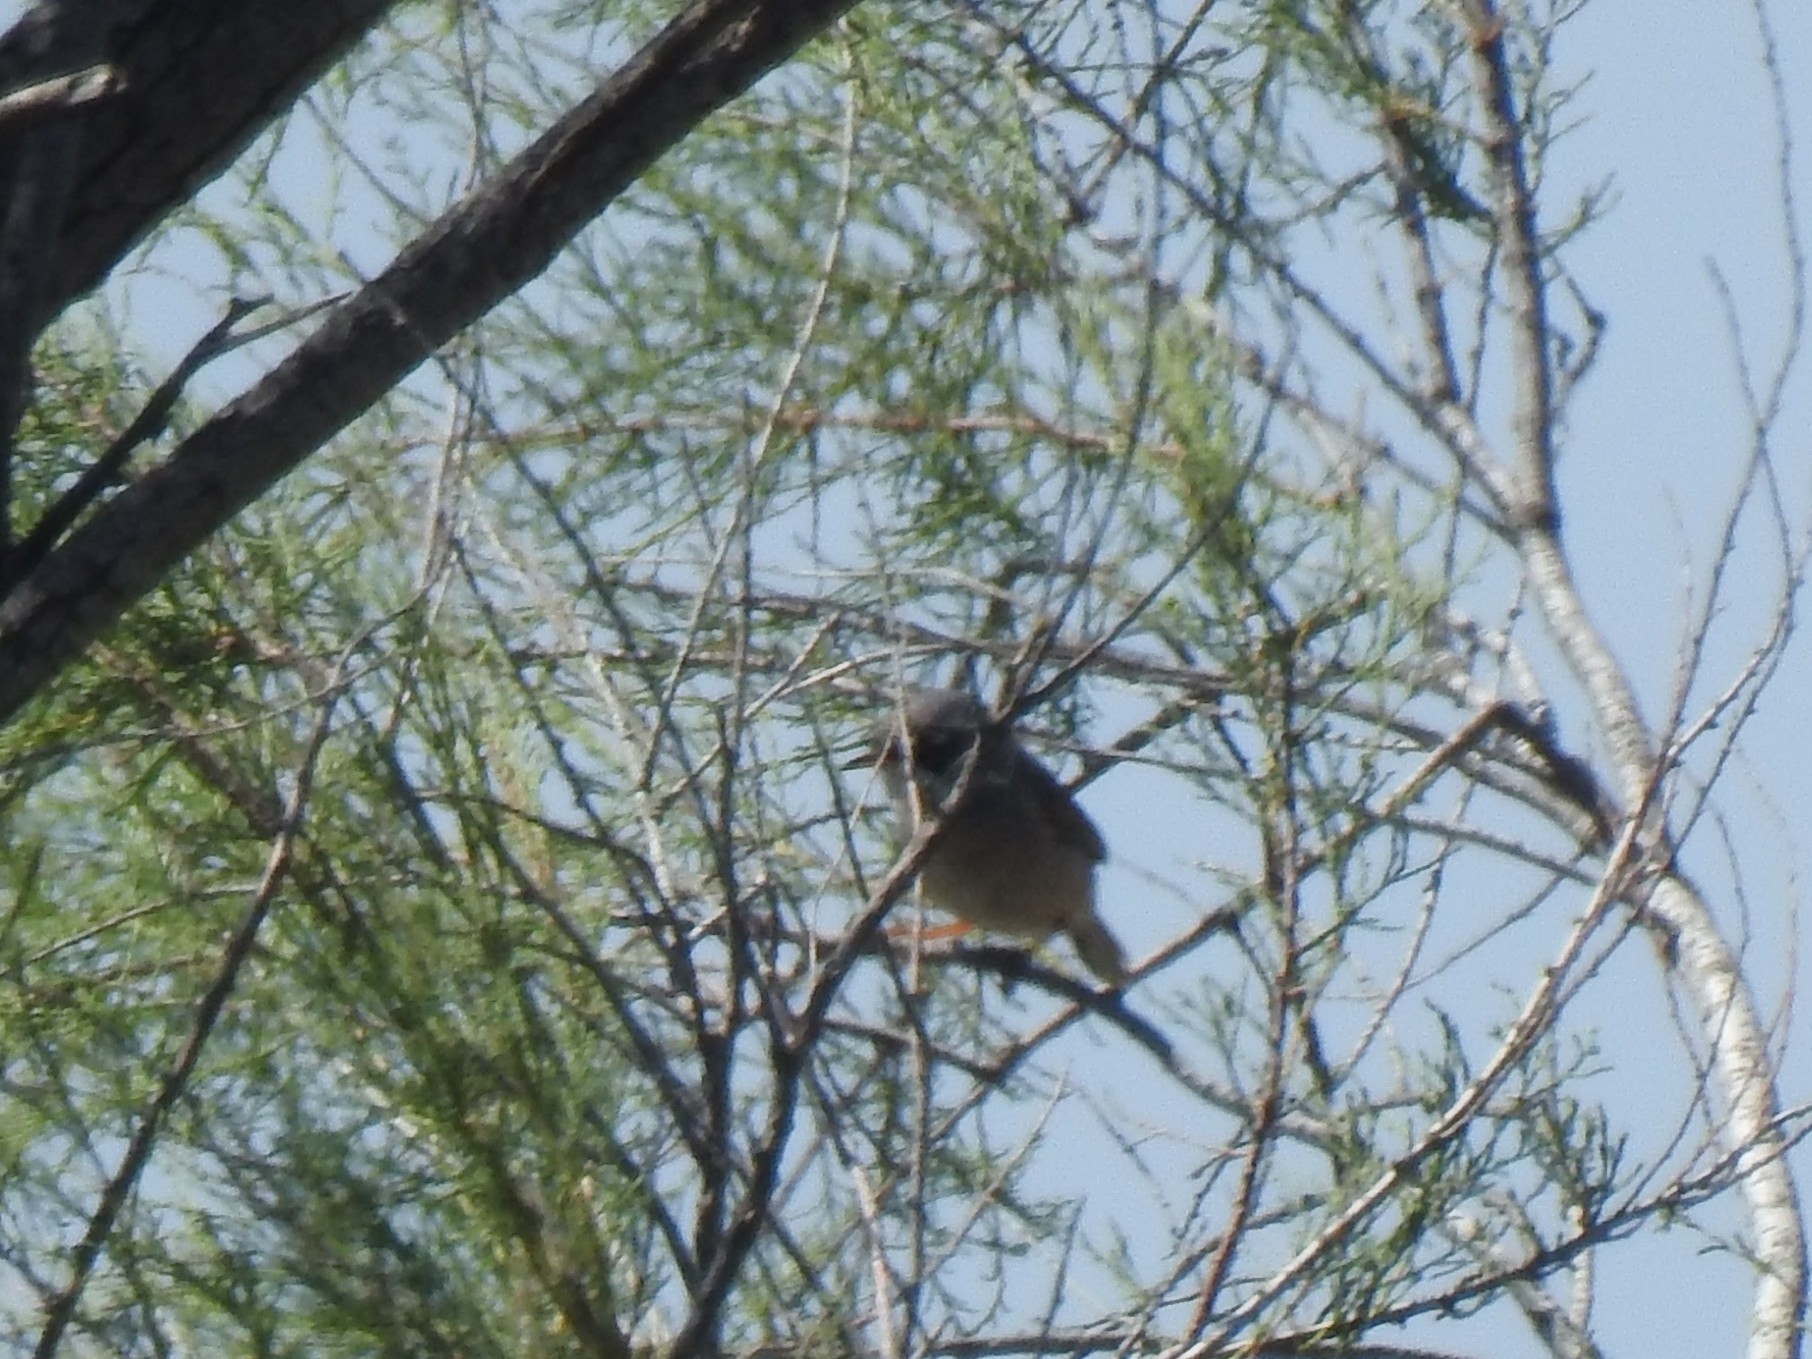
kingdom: Animalia
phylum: Chordata
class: Aves
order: Passeriformes
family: Sylviidae
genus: Sylvia
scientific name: Sylvia conspicillata
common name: Spectacled warbler
